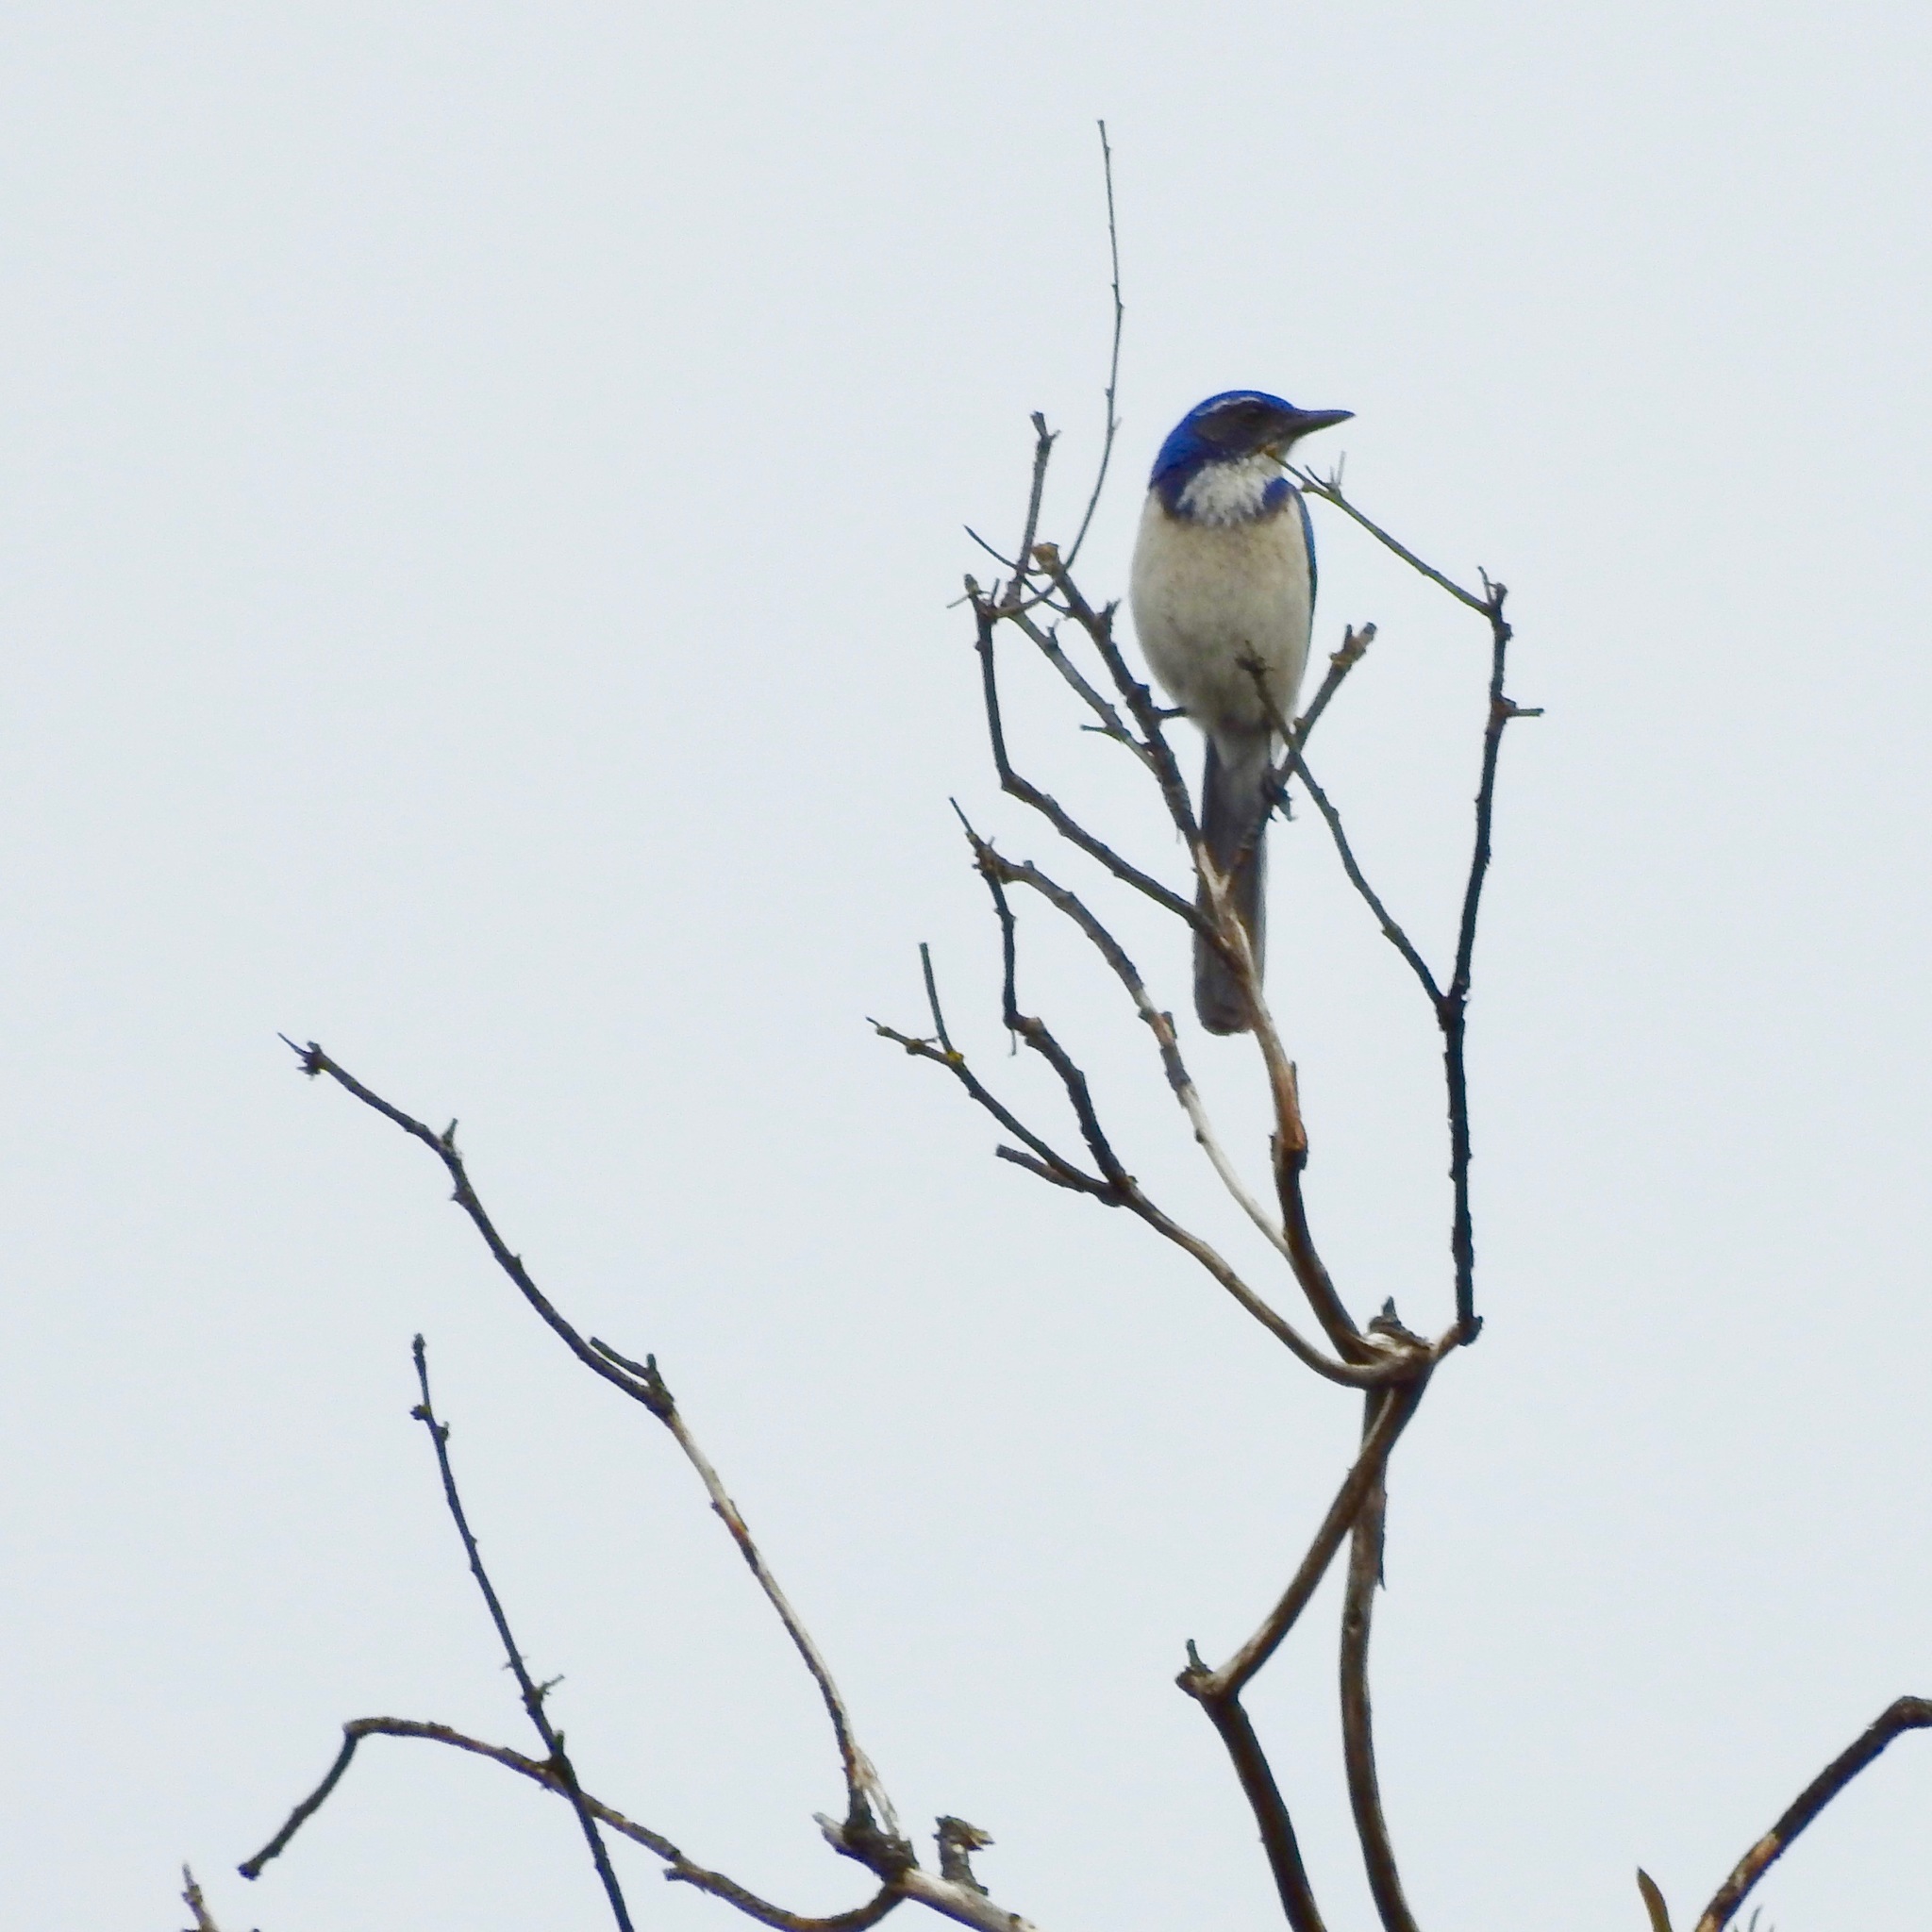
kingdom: Animalia
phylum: Chordata
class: Aves
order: Passeriformes
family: Corvidae
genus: Aphelocoma
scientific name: Aphelocoma californica
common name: California scrub-jay
